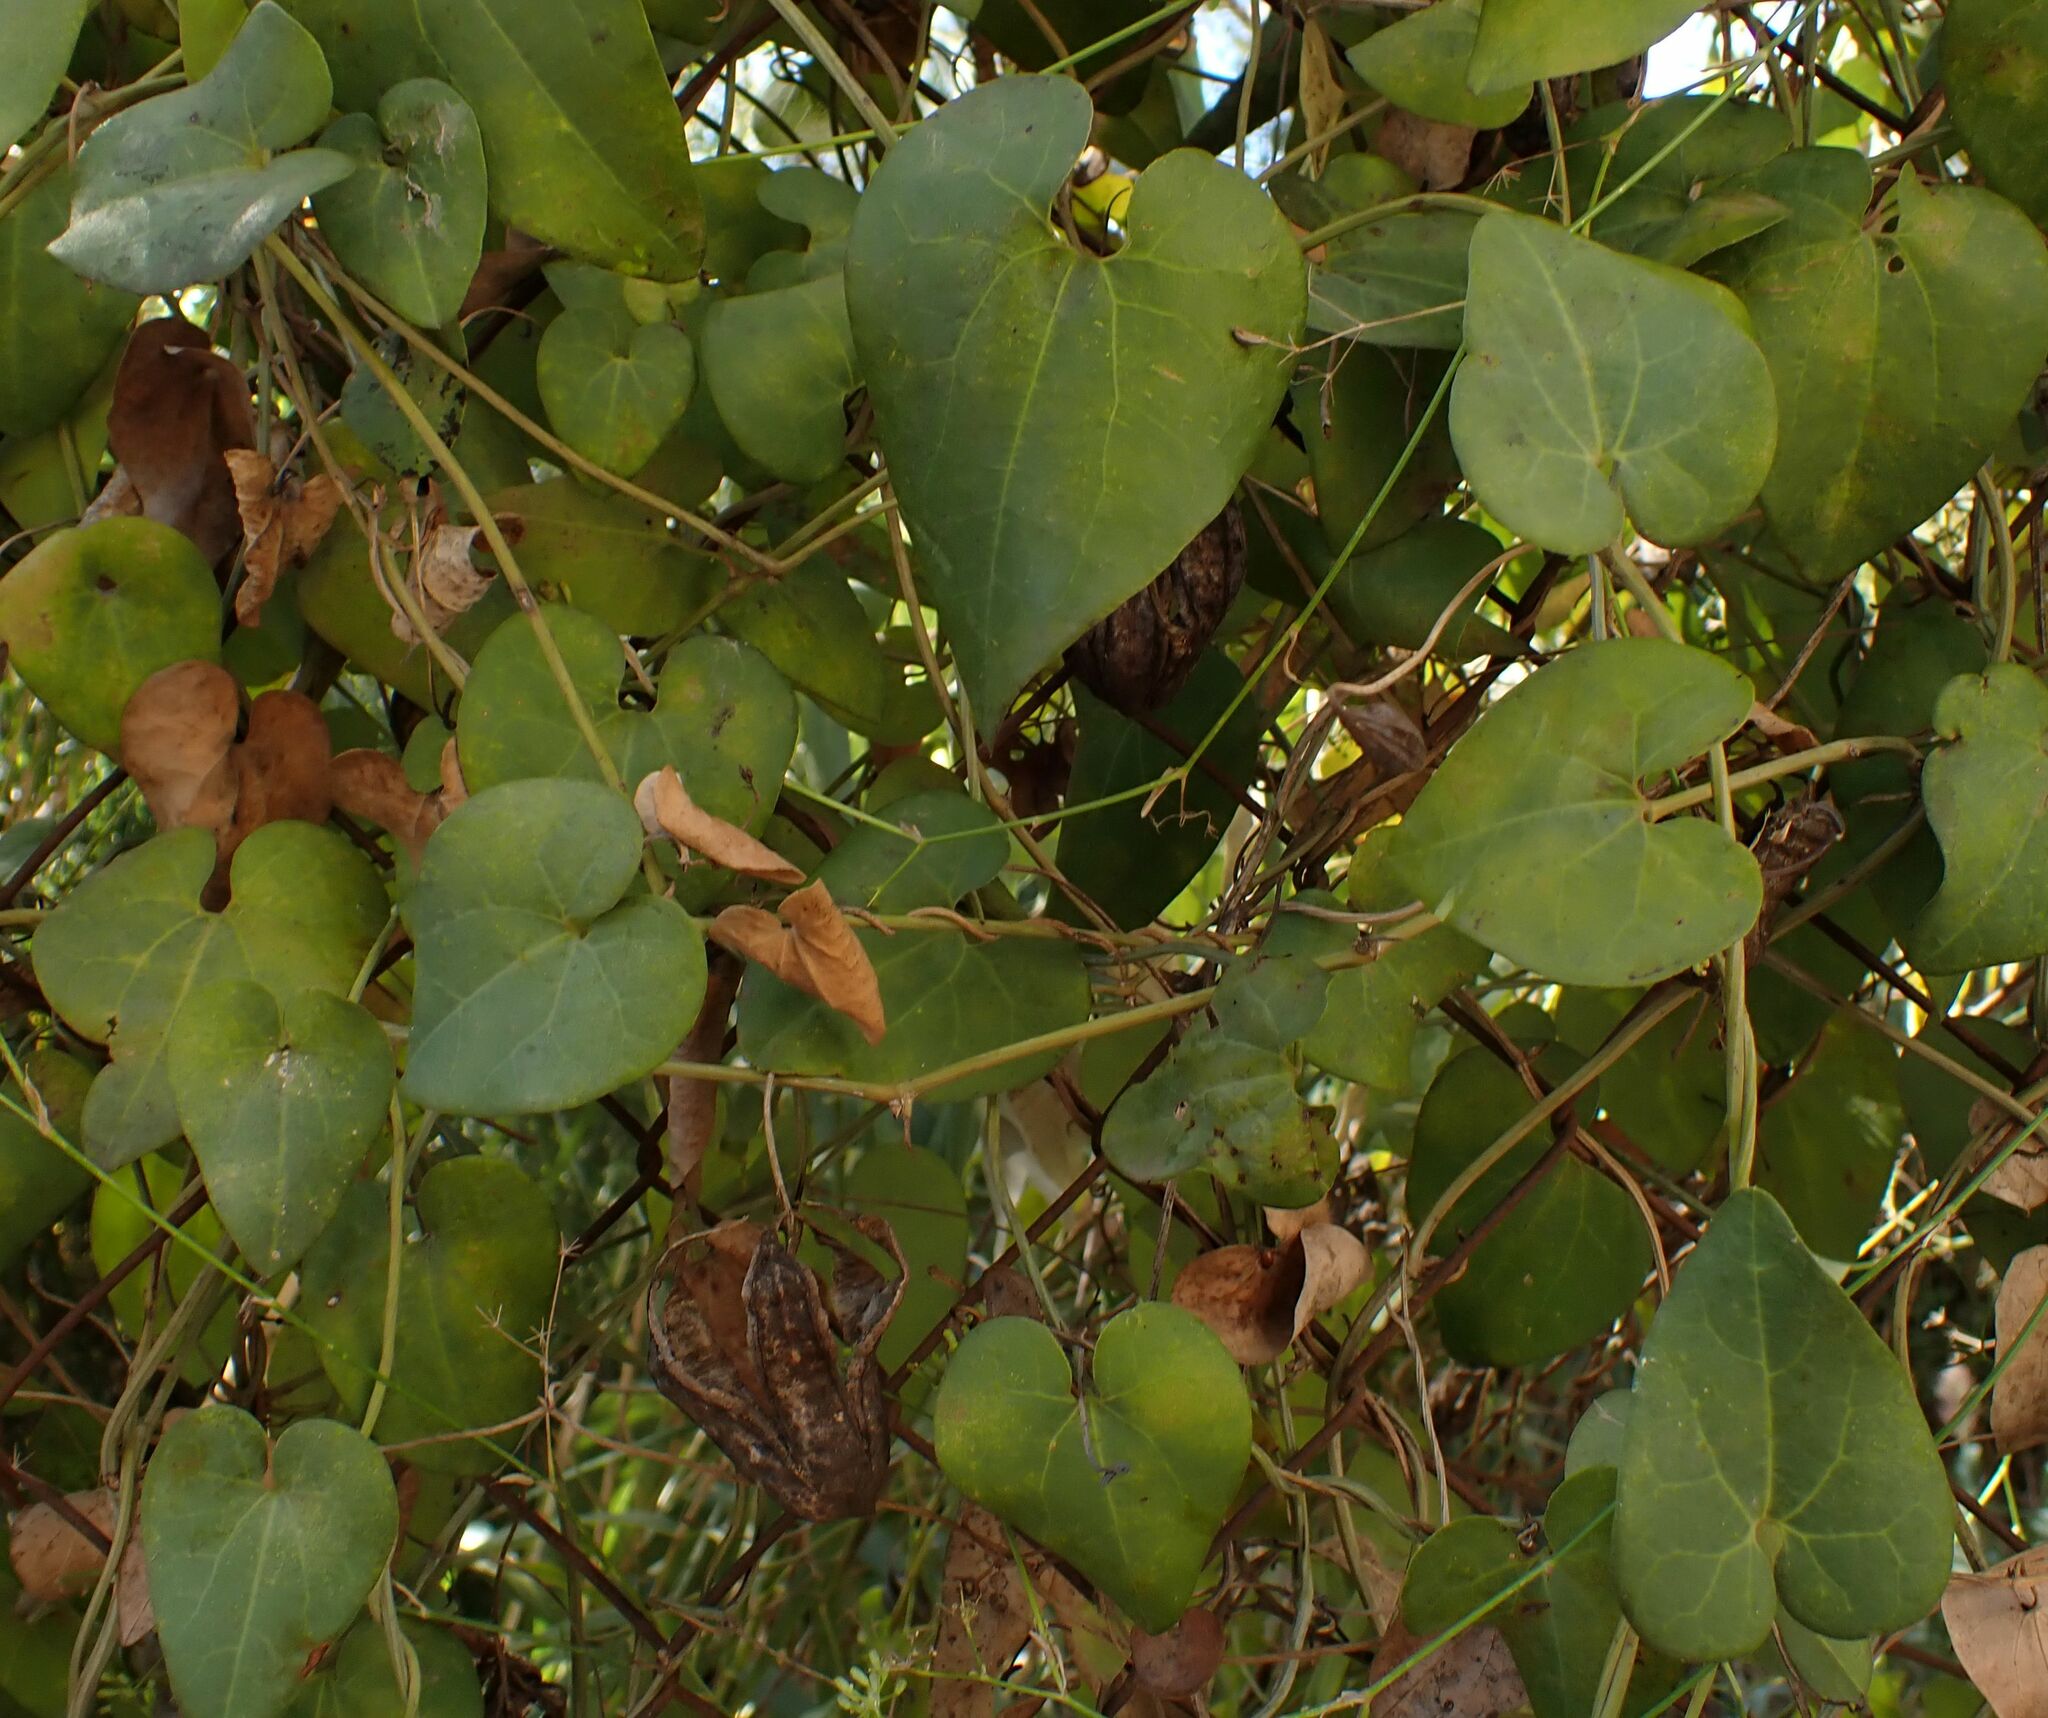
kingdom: Plantae
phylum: Tracheophyta
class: Magnoliopsida
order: Piperales
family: Aristolochiaceae
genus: Aristolochia
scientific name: Aristolochia baetica
